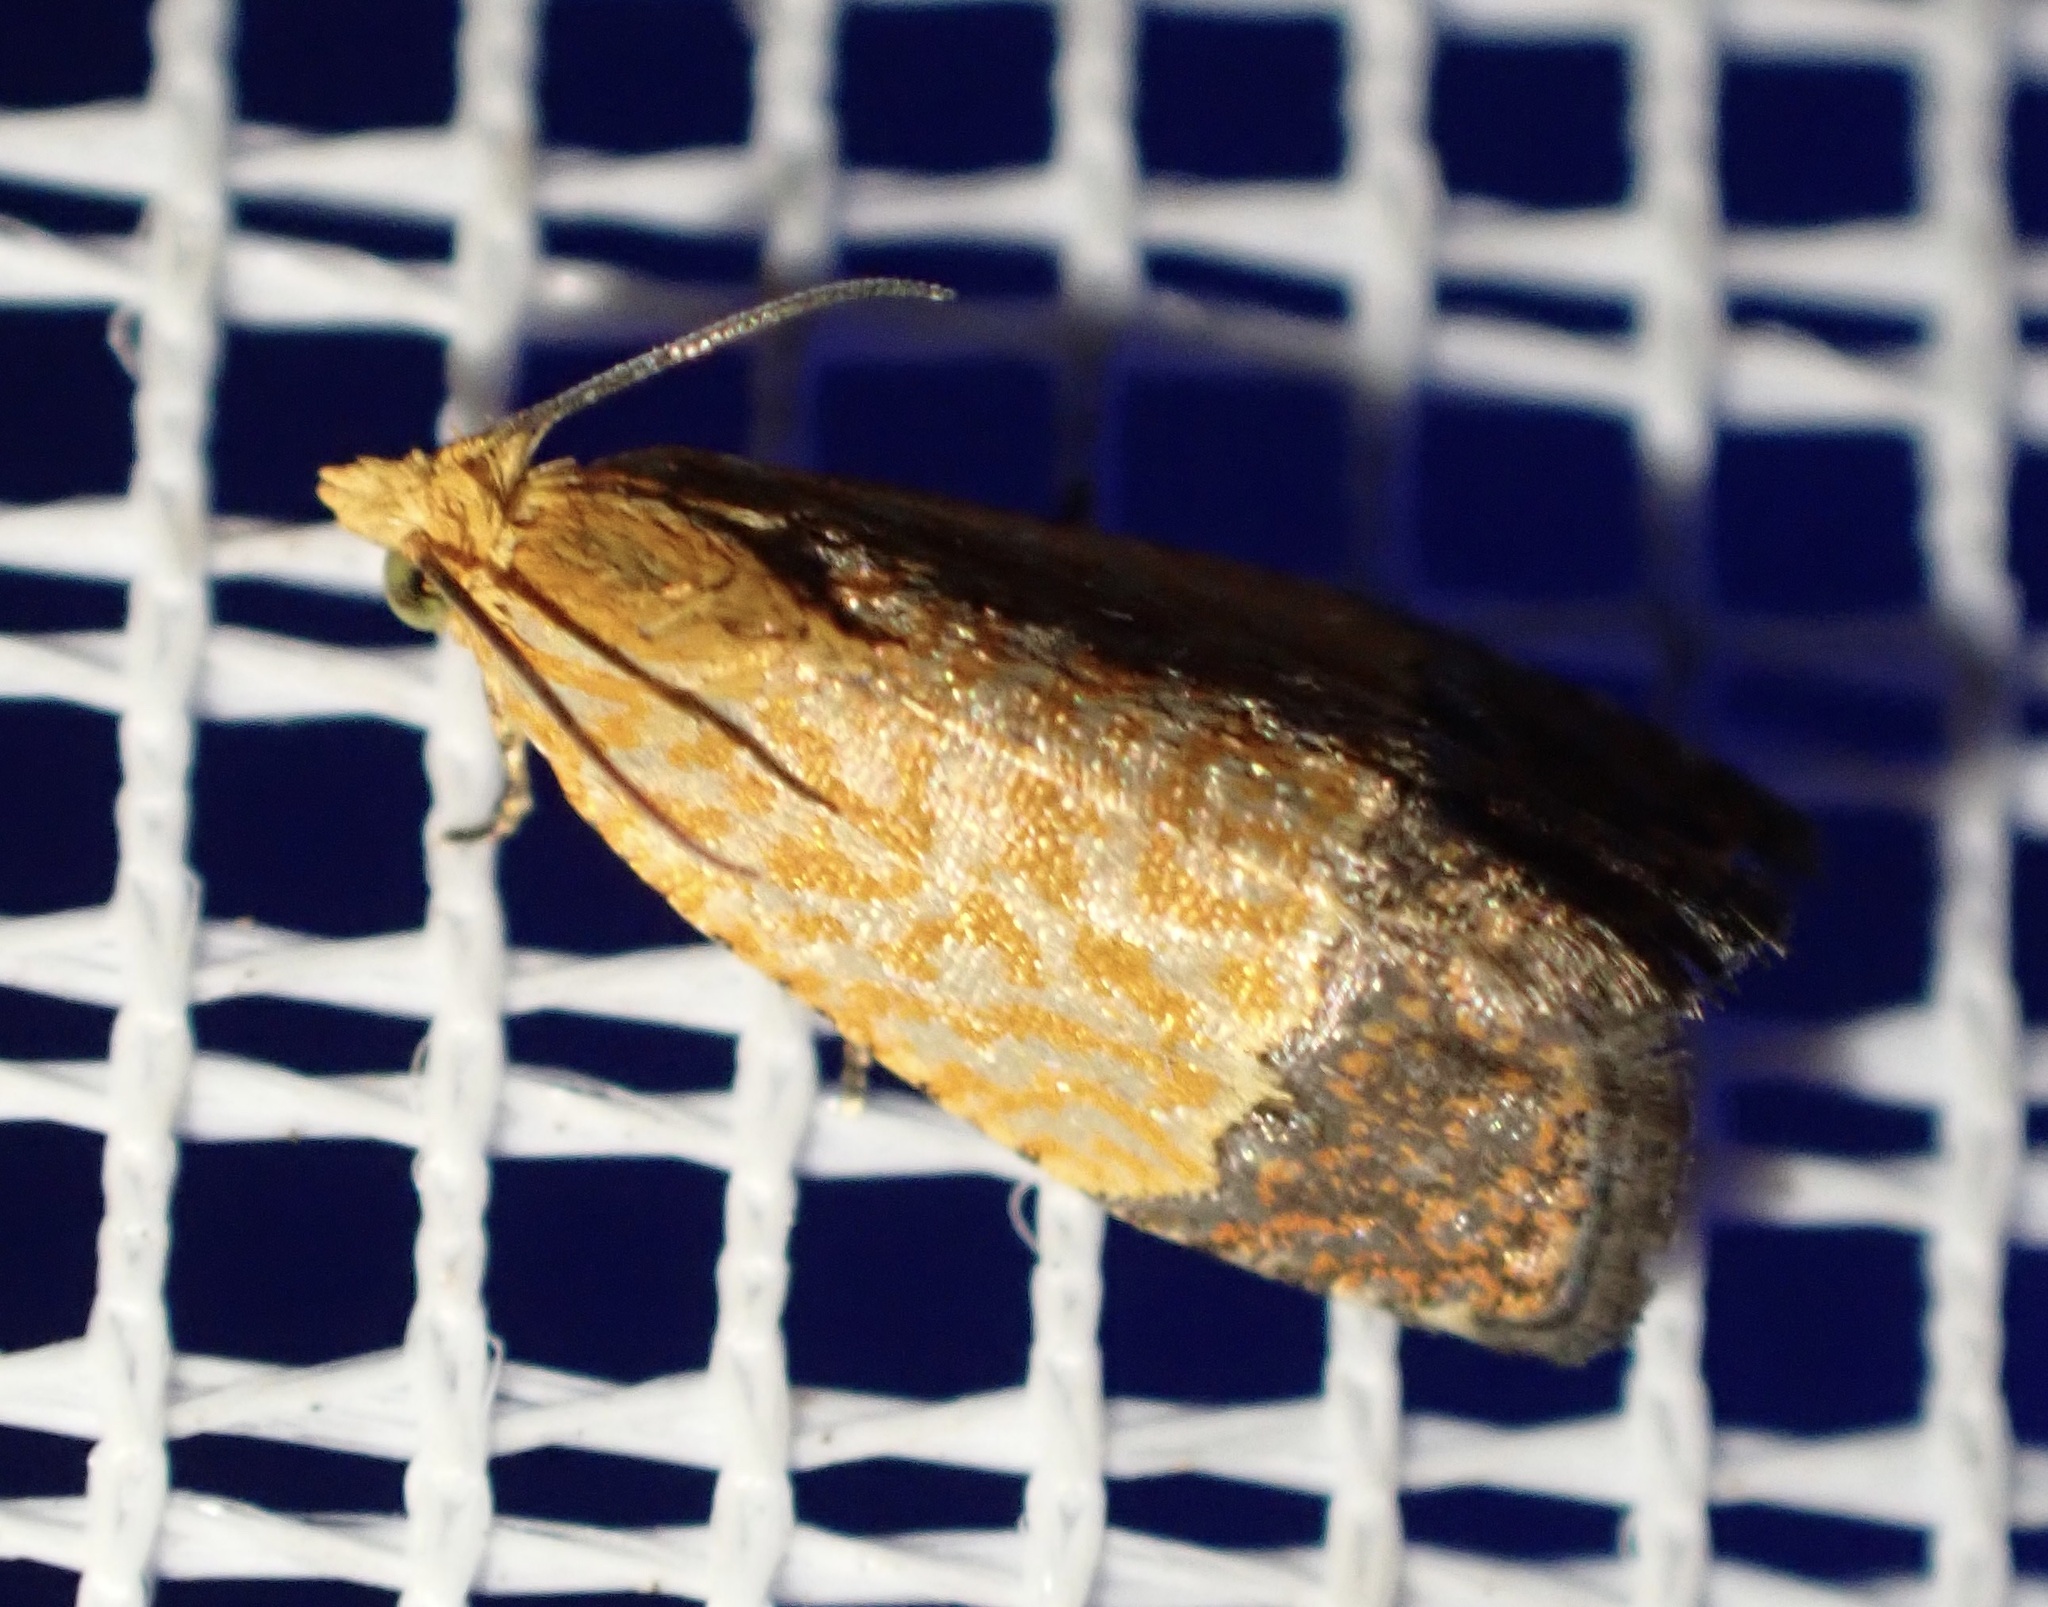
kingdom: Animalia
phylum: Arthropoda
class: Insecta
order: Lepidoptera
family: Tortricidae
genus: Loboschiza
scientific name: Loboschiza koenigiana
